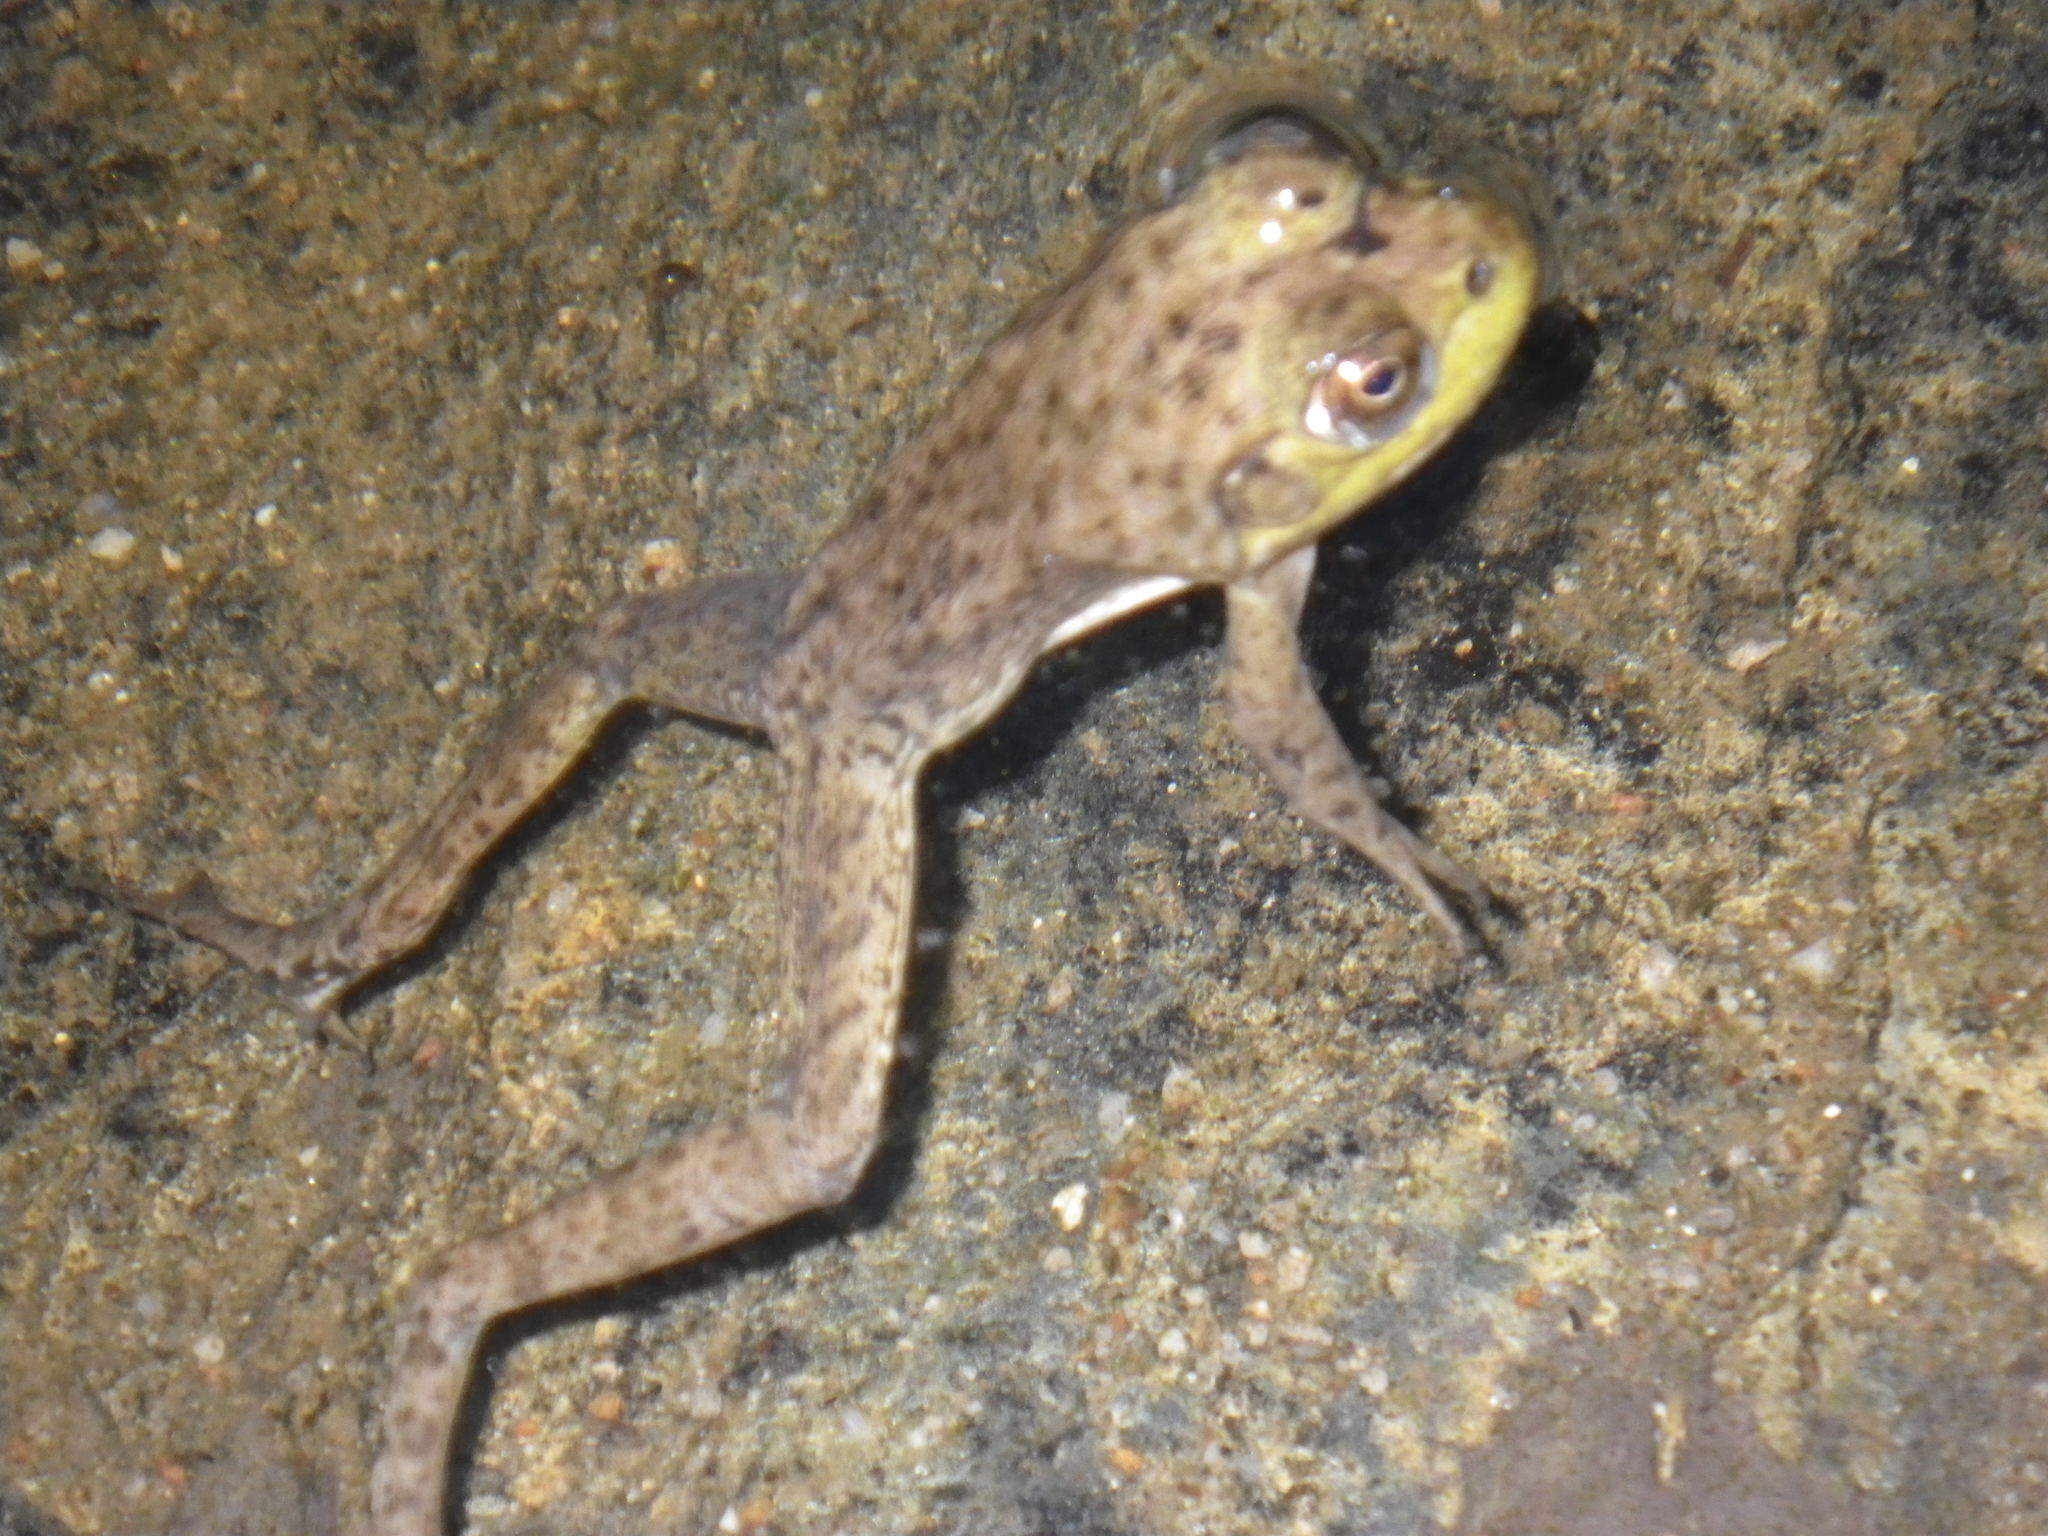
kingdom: Animalia
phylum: Chordata
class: Amphibia
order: Anura
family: Ranidae
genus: Lithobates
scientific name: Lithobates catesbeianus
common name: American bullfrog
